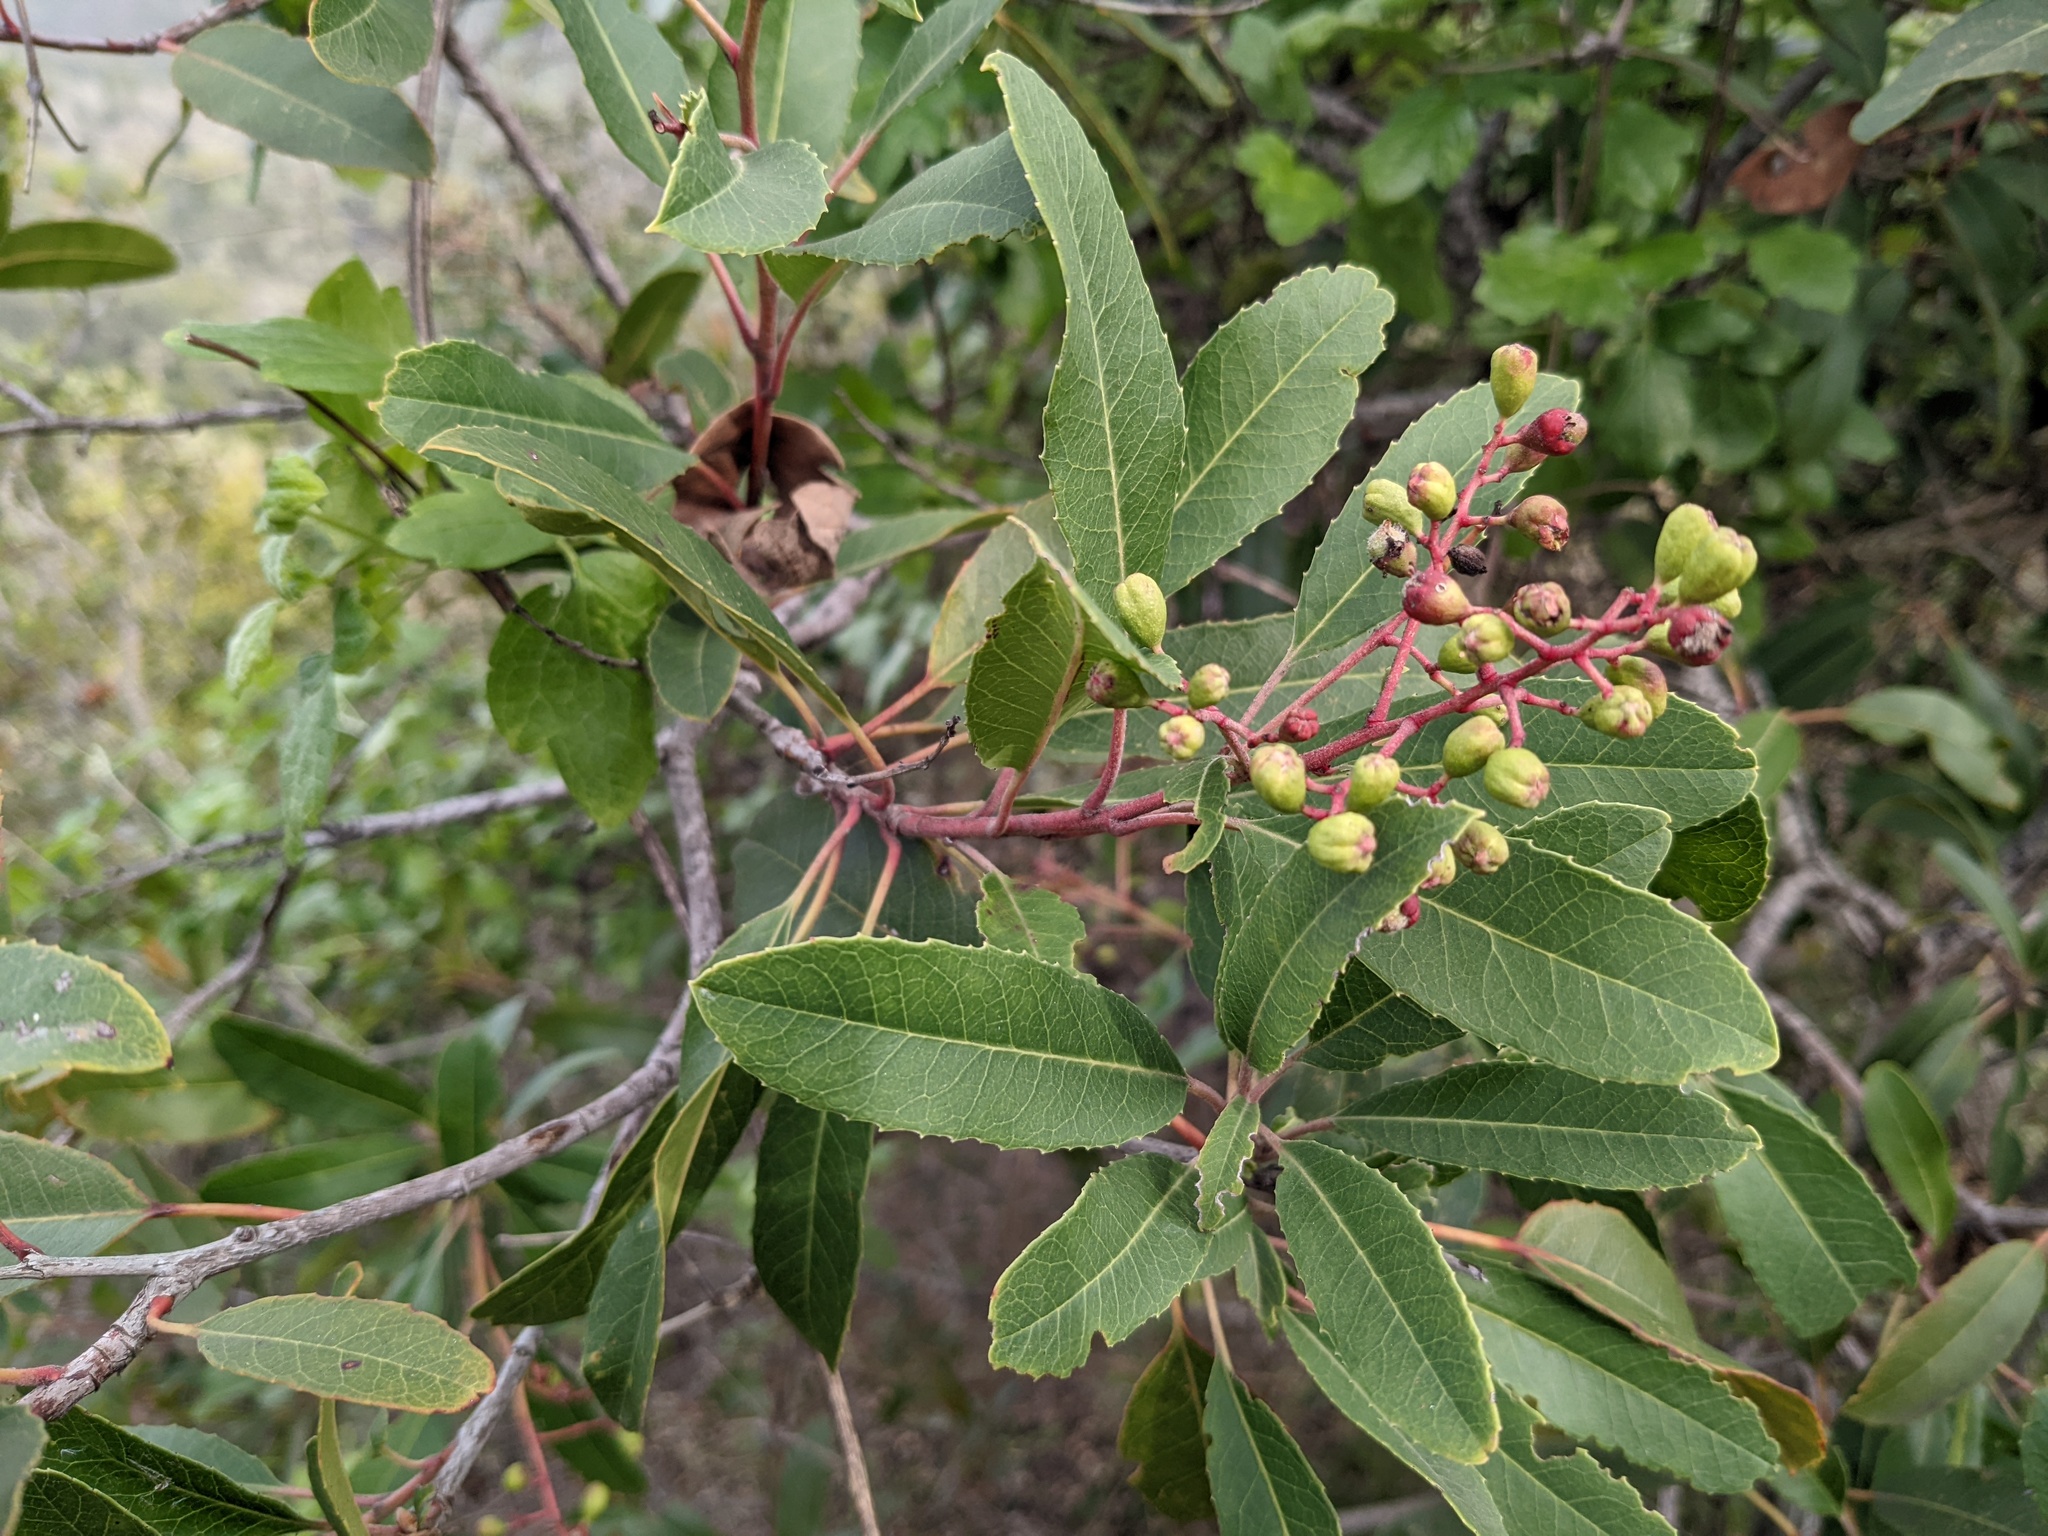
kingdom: Plantae
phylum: Tracheophyta
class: Magnoliopsida
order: Rosales
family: Rosaceae
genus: Heteromeles
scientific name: Heteromeles arbutifolia
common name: California-holly
